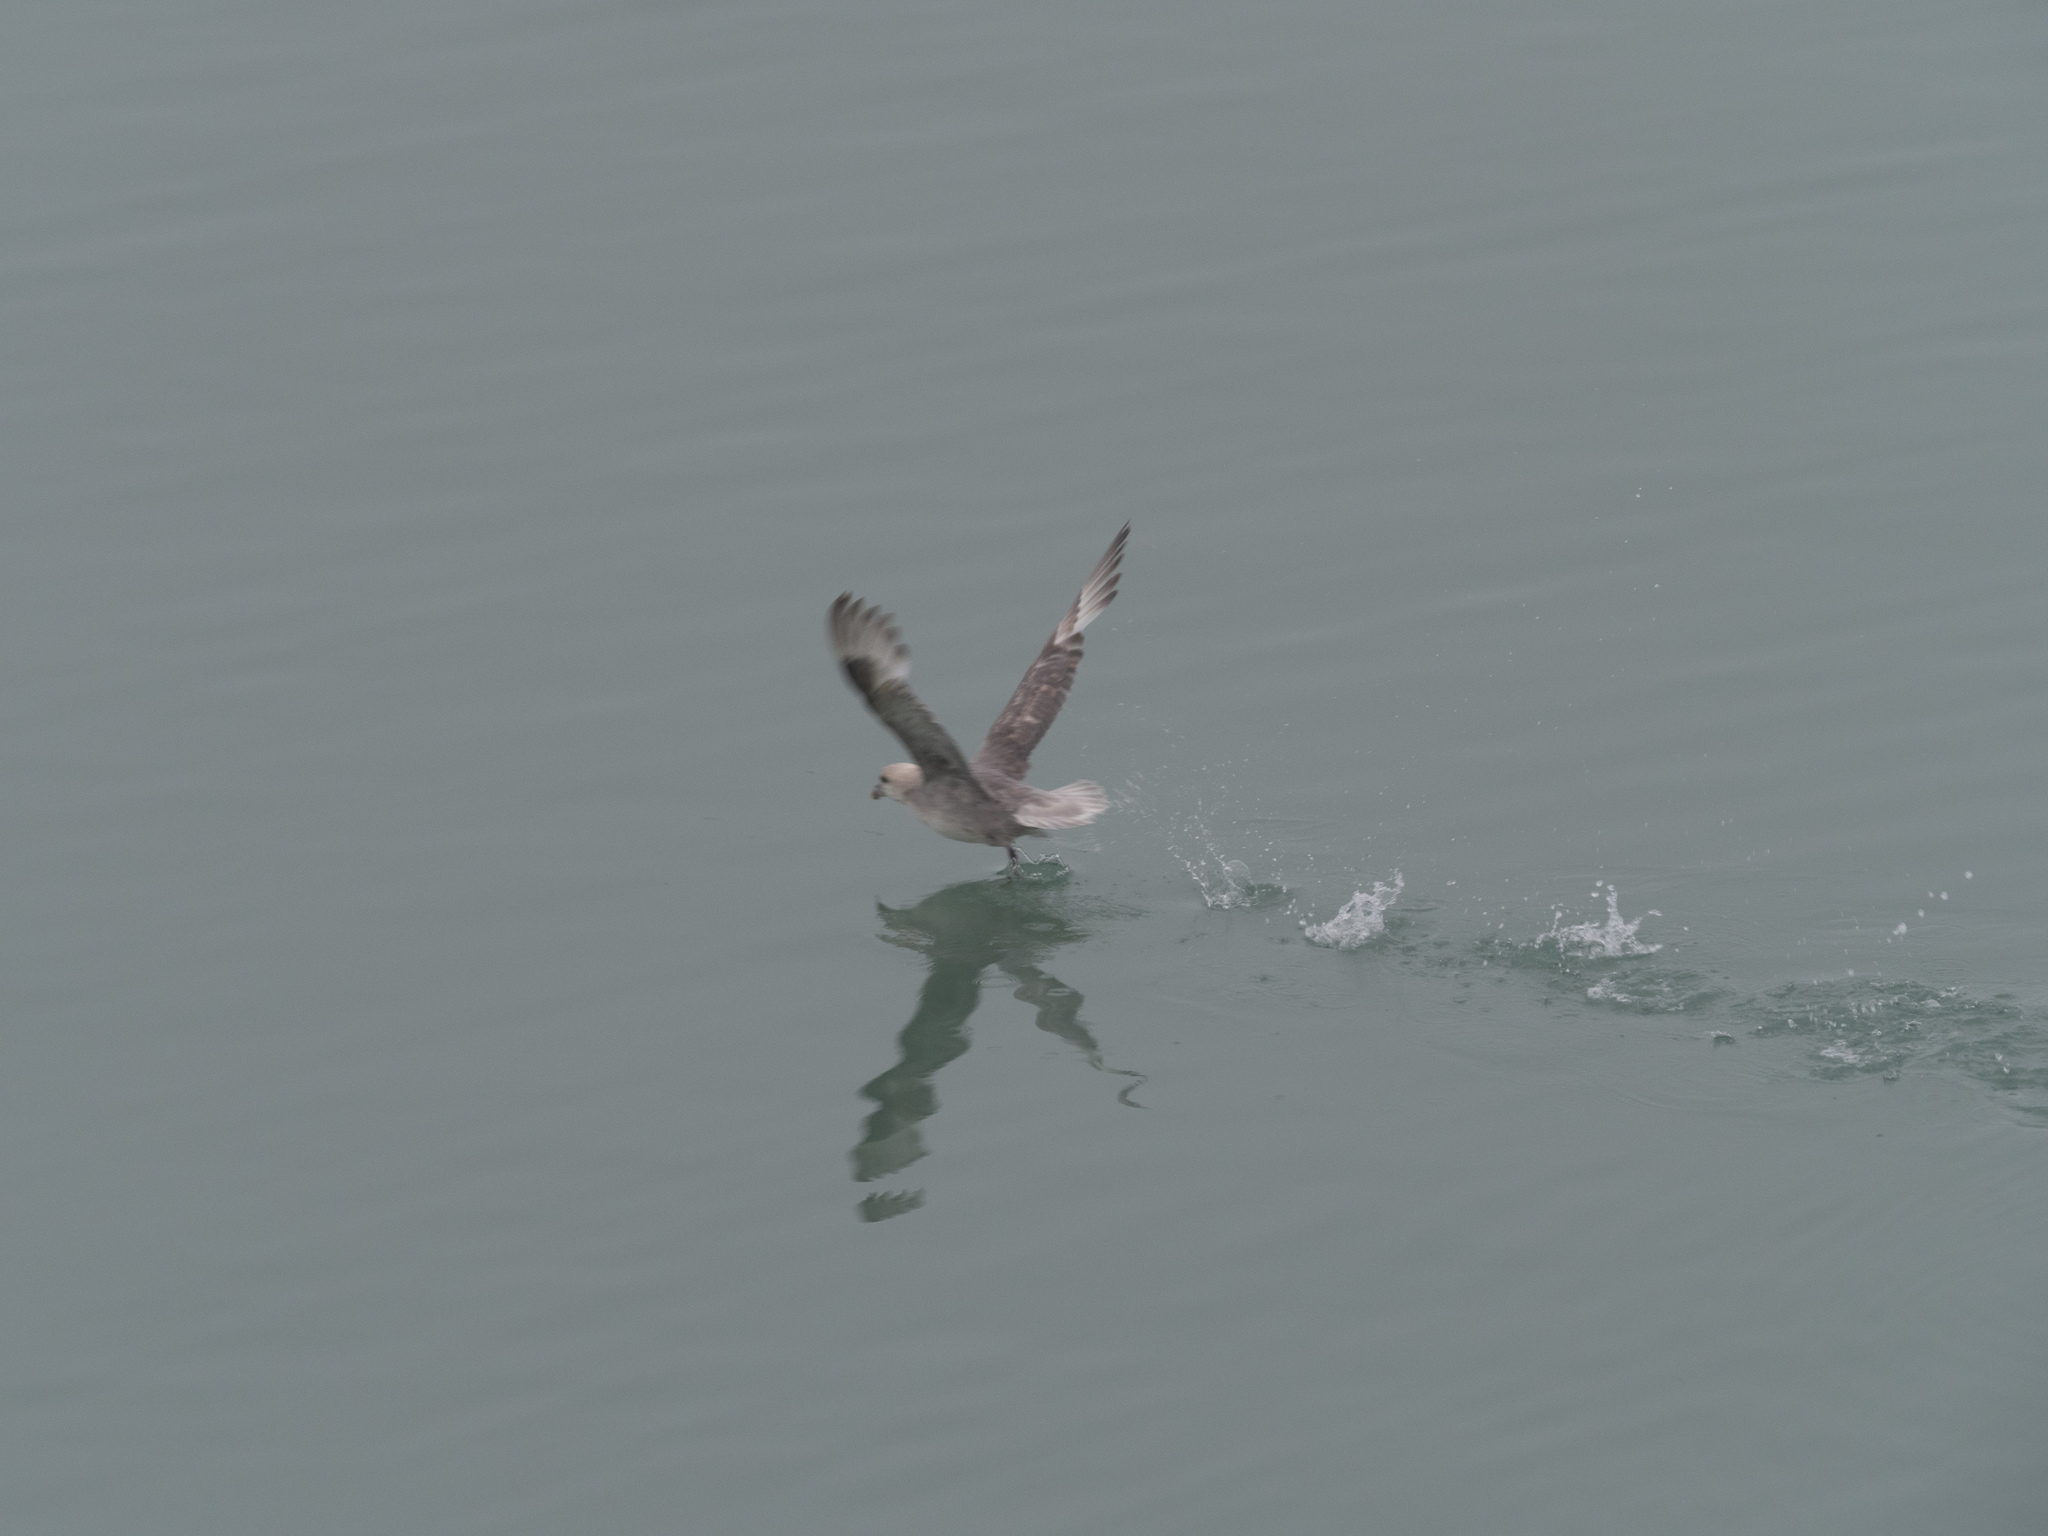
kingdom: Animalia
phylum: Chordata
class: Aves
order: Procellariiformes
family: Procellariidae
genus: Fulmarus
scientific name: Fulmarus glacialis
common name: Northern fulmar
